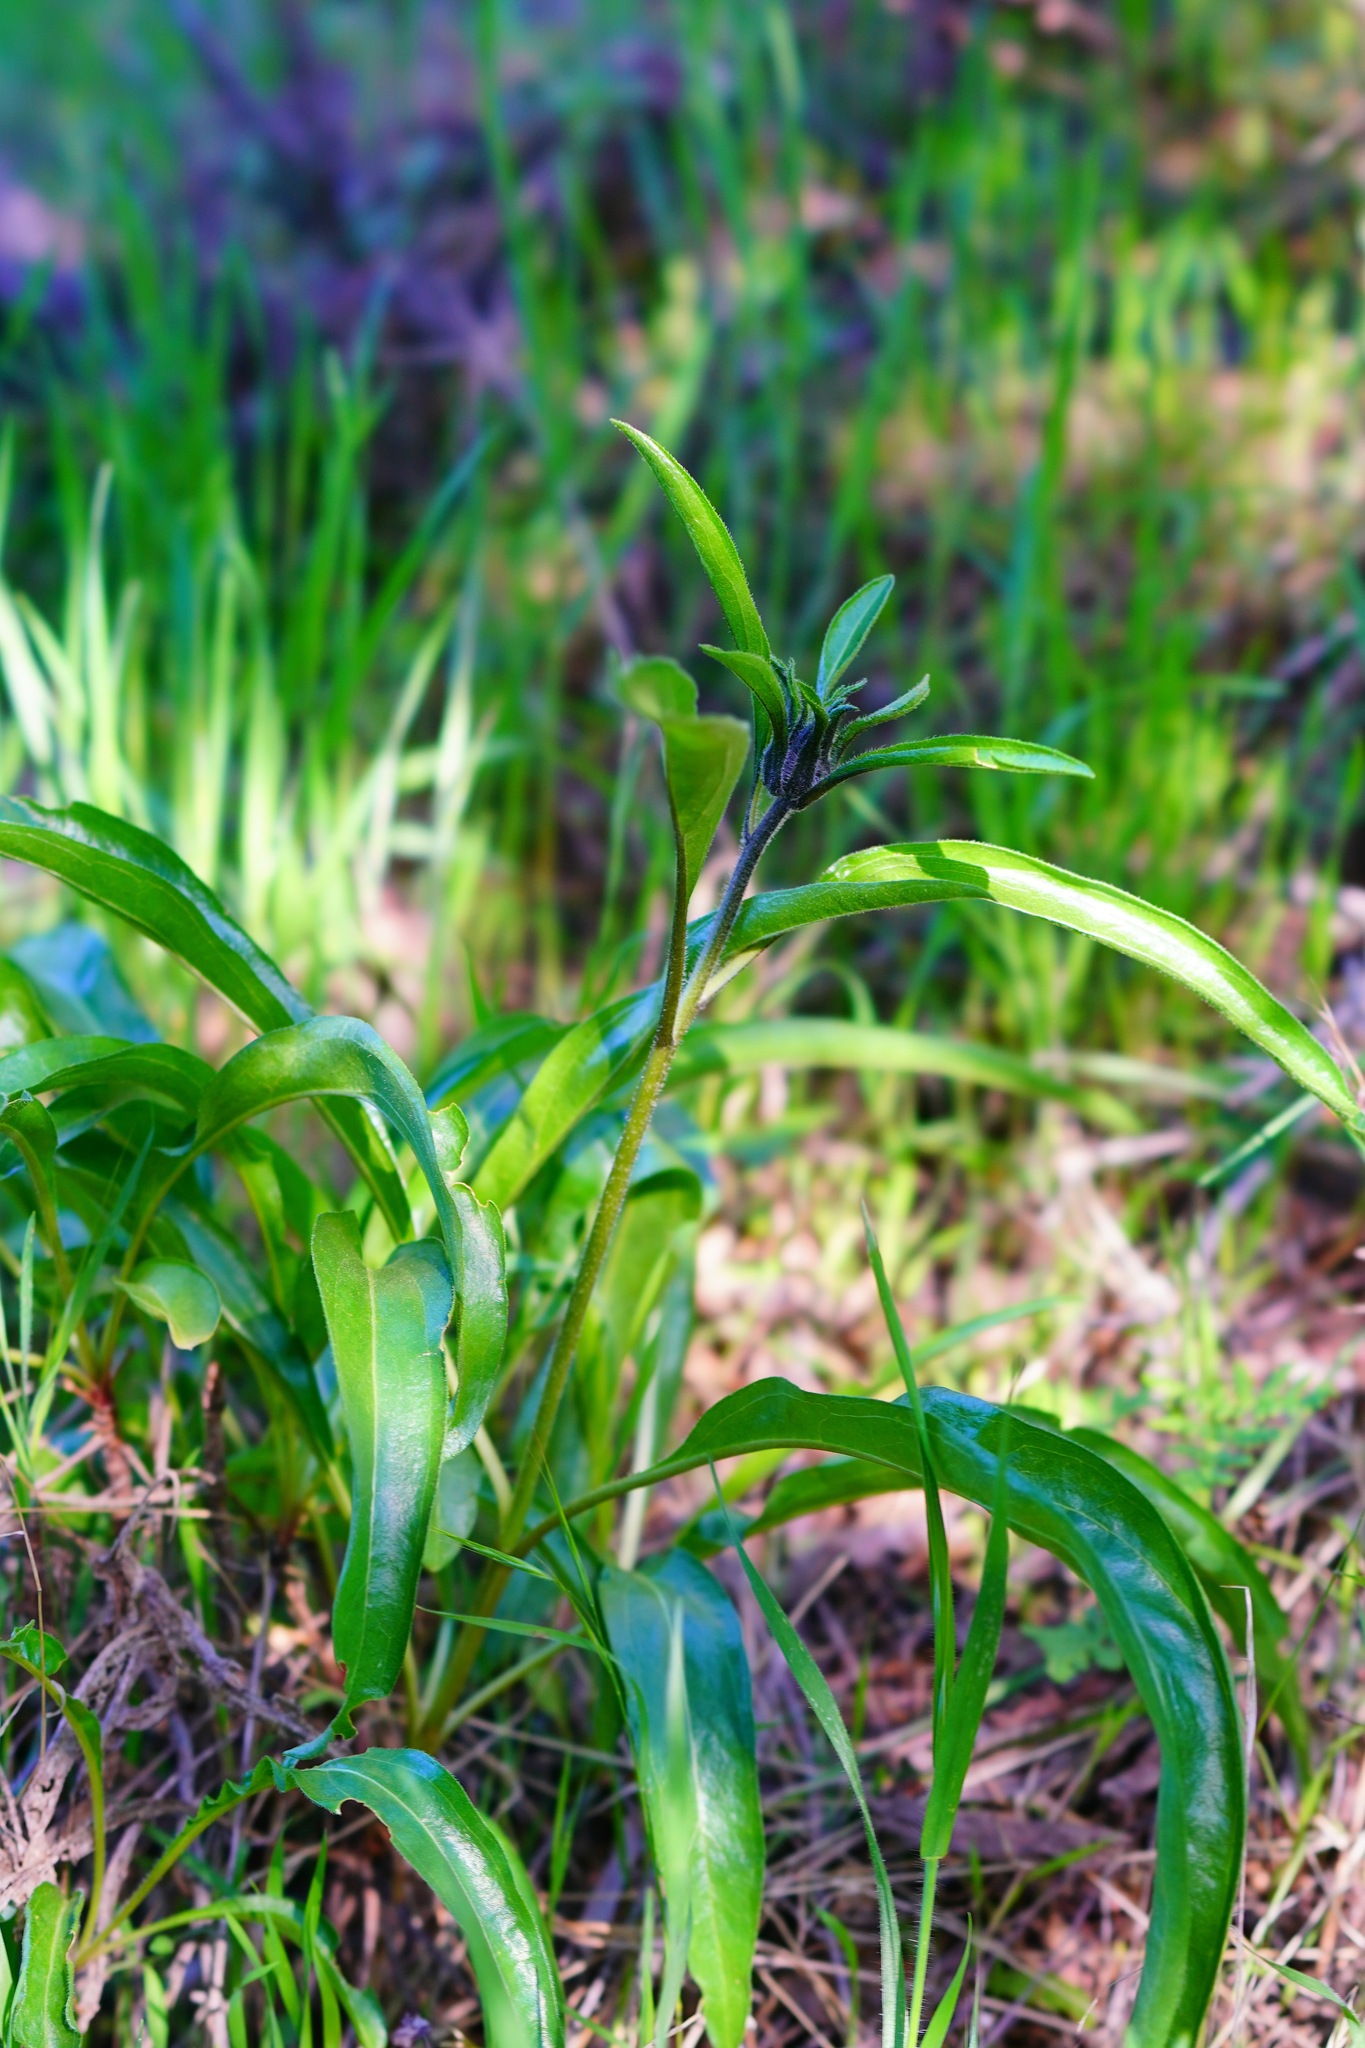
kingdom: Plantae
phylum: Tracheophyta
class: Magnoliopsida
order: Asterales
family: Asteraceae
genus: Helianthella
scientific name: Helianthella castanea
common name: Diablo helianthella
